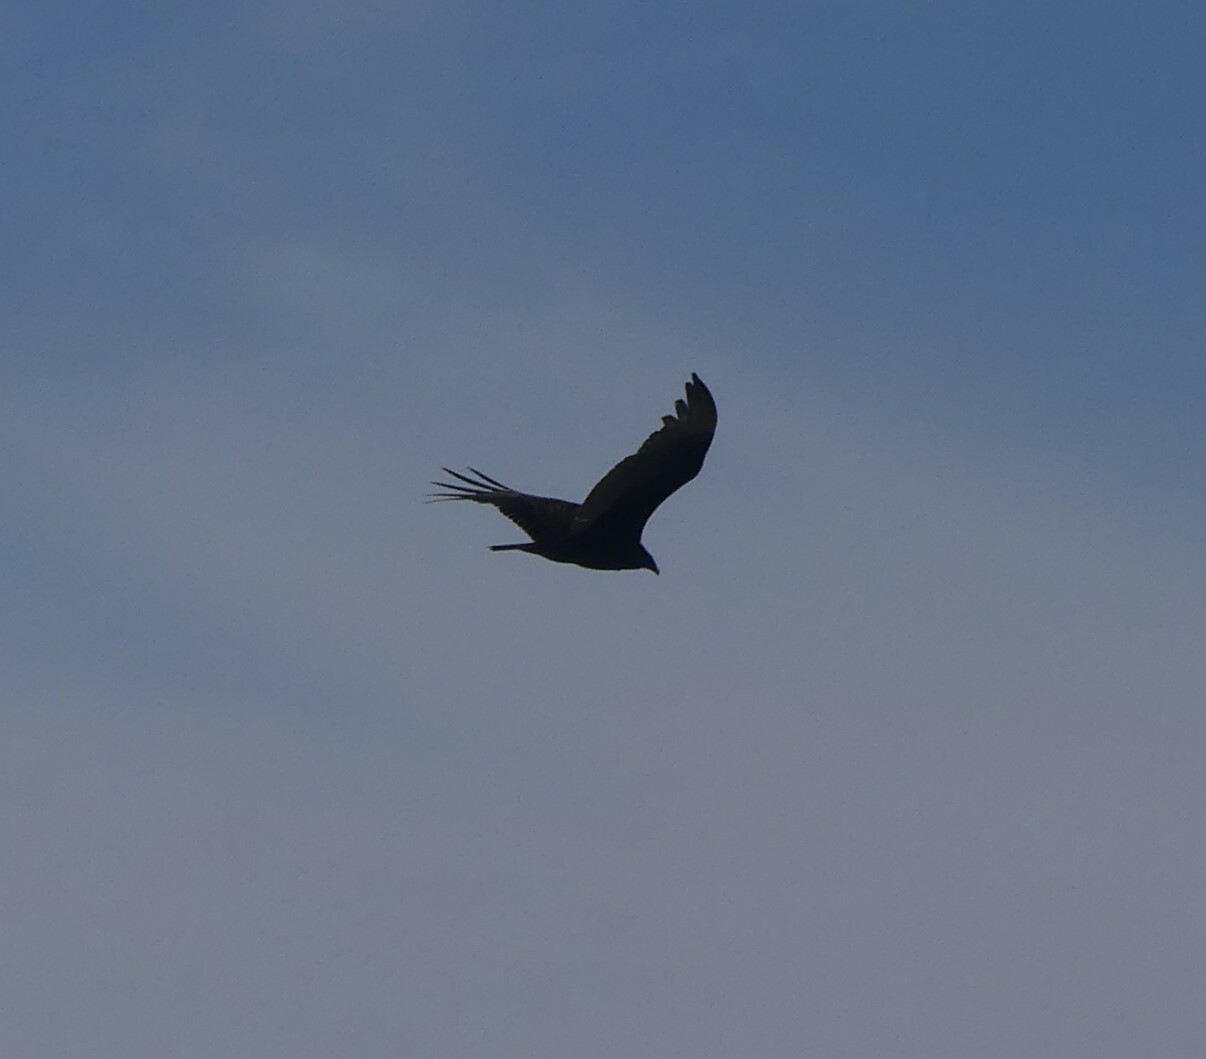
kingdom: Animalia
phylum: Chordata
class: Aves
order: Accipitriformes
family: Cathartidae
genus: Cathartes
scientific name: Cathartes aura
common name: Turkey vulture
